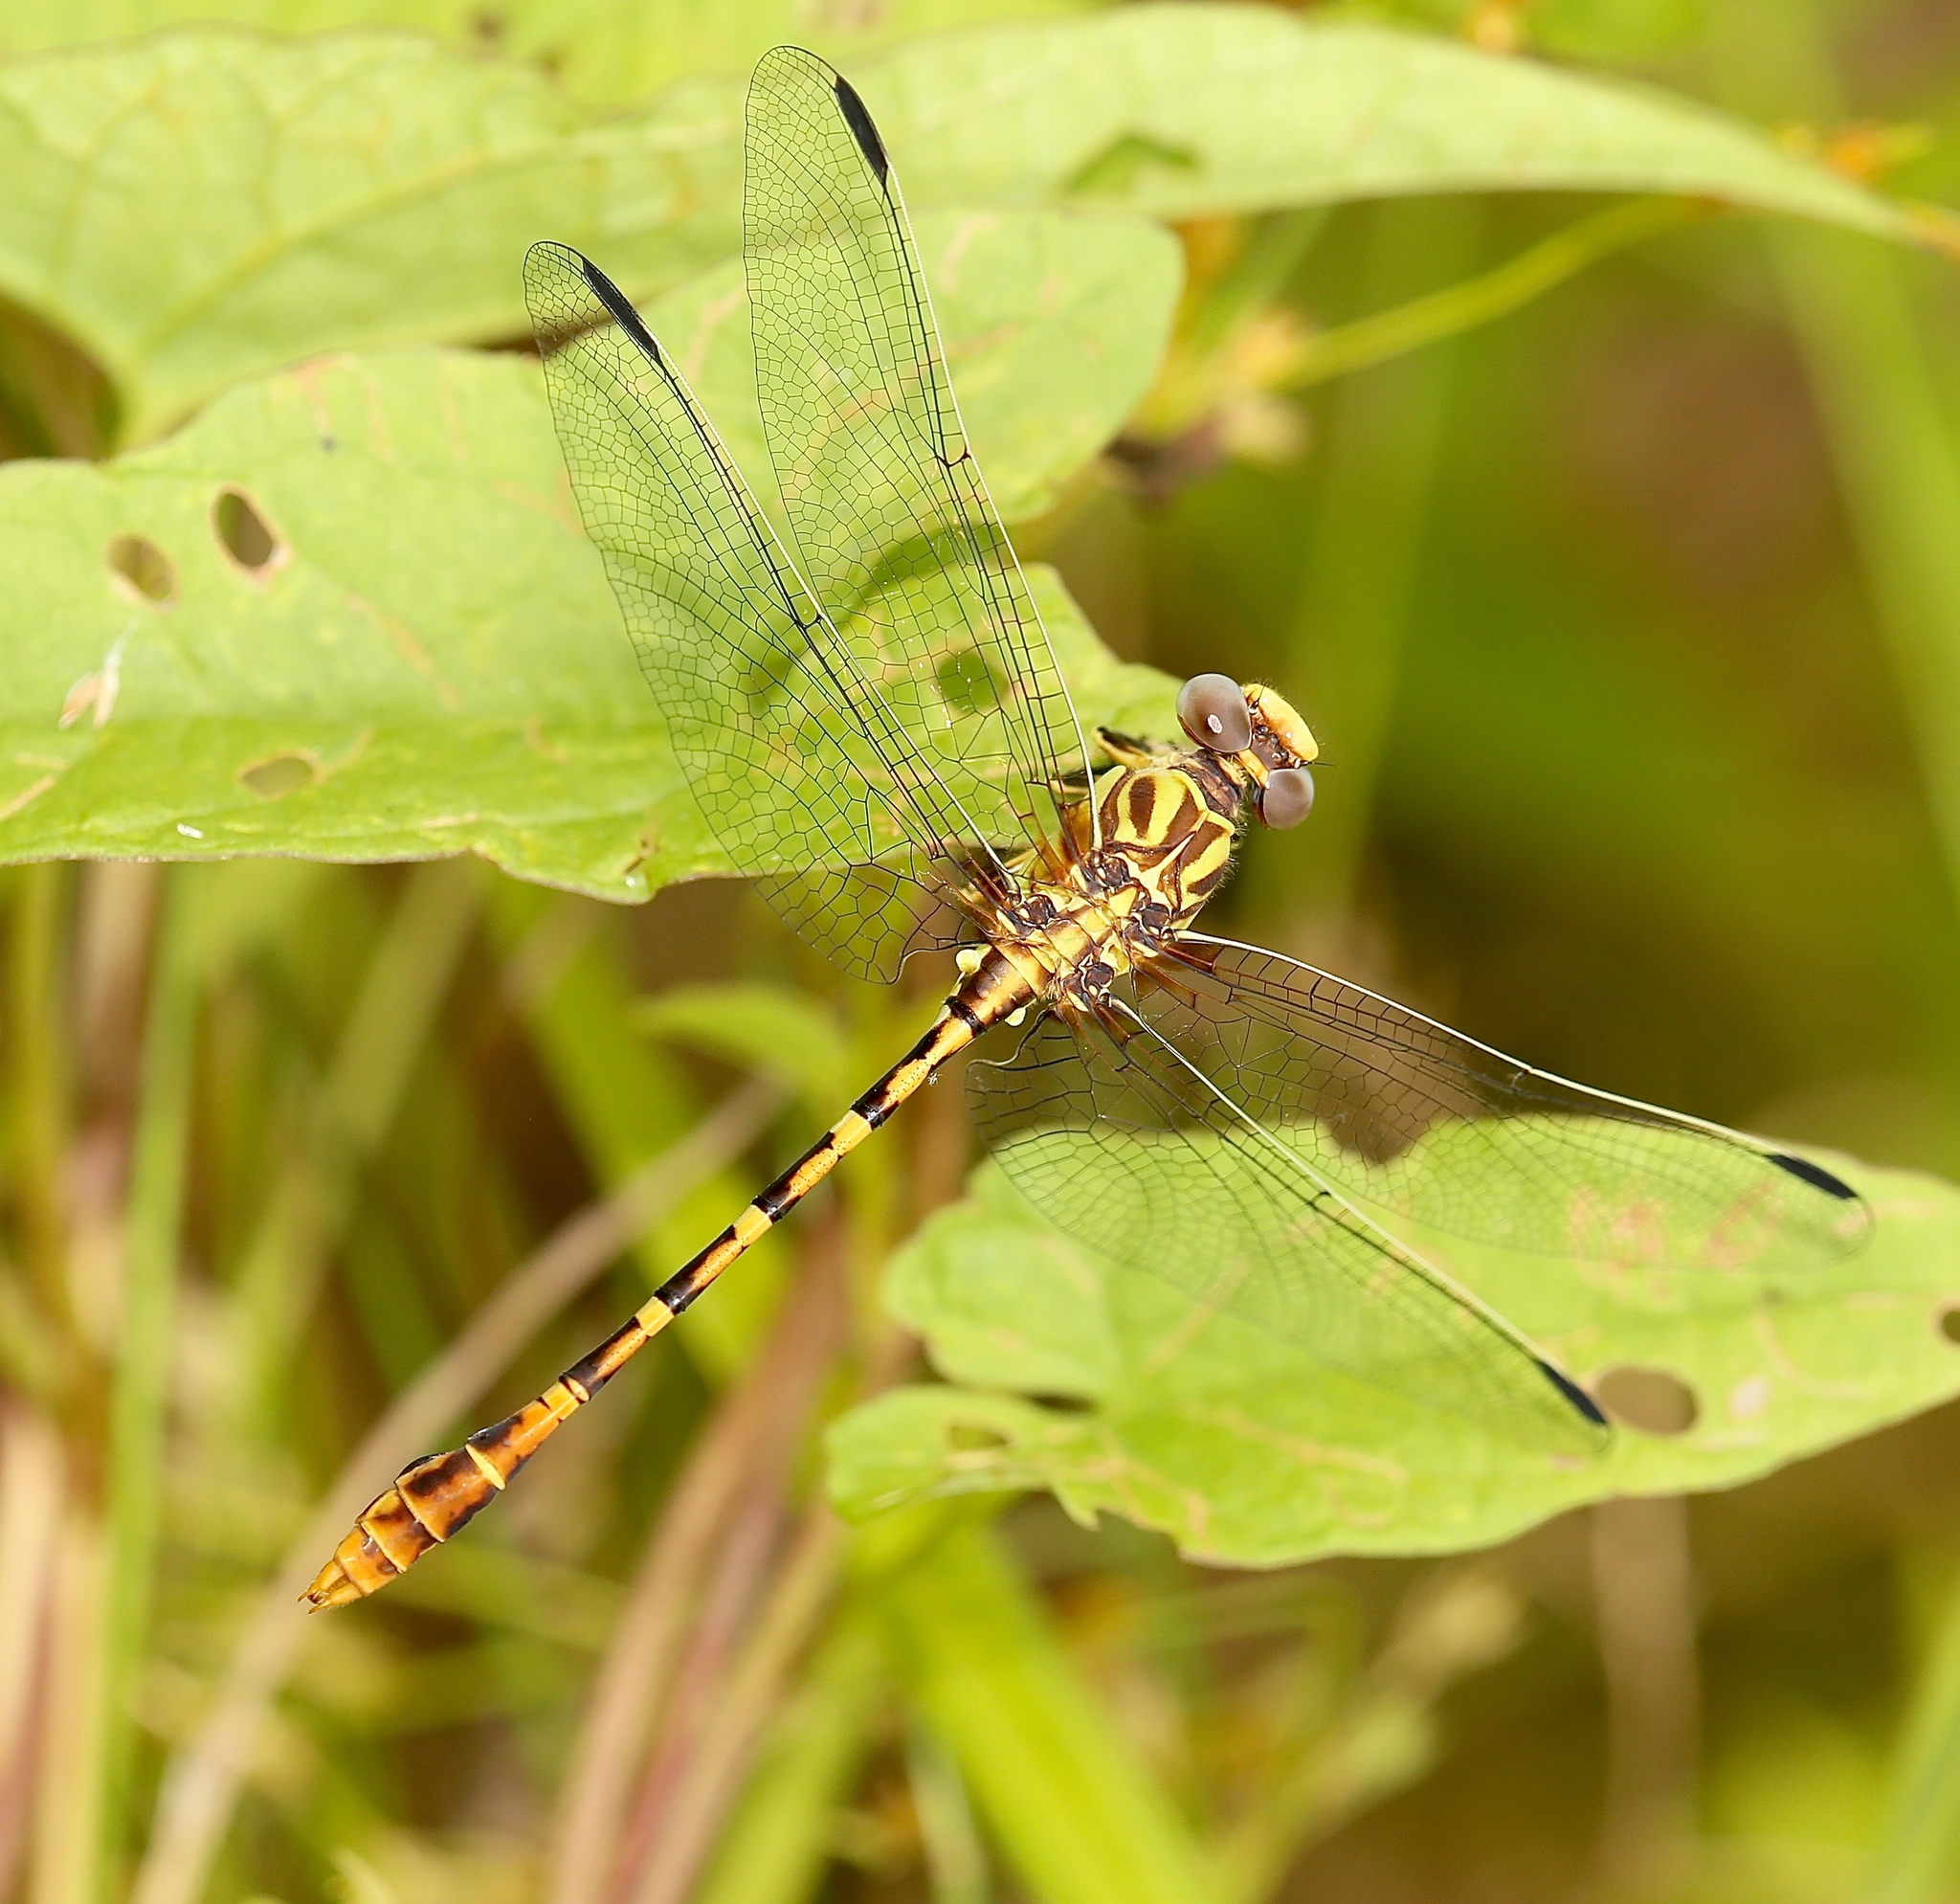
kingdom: Animalia
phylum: Arthropoda
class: Insecta
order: Odonata
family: Gomphidae
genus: Erpetogomphus
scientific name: Erpetogomphus designatus
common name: Eastern ringtail
